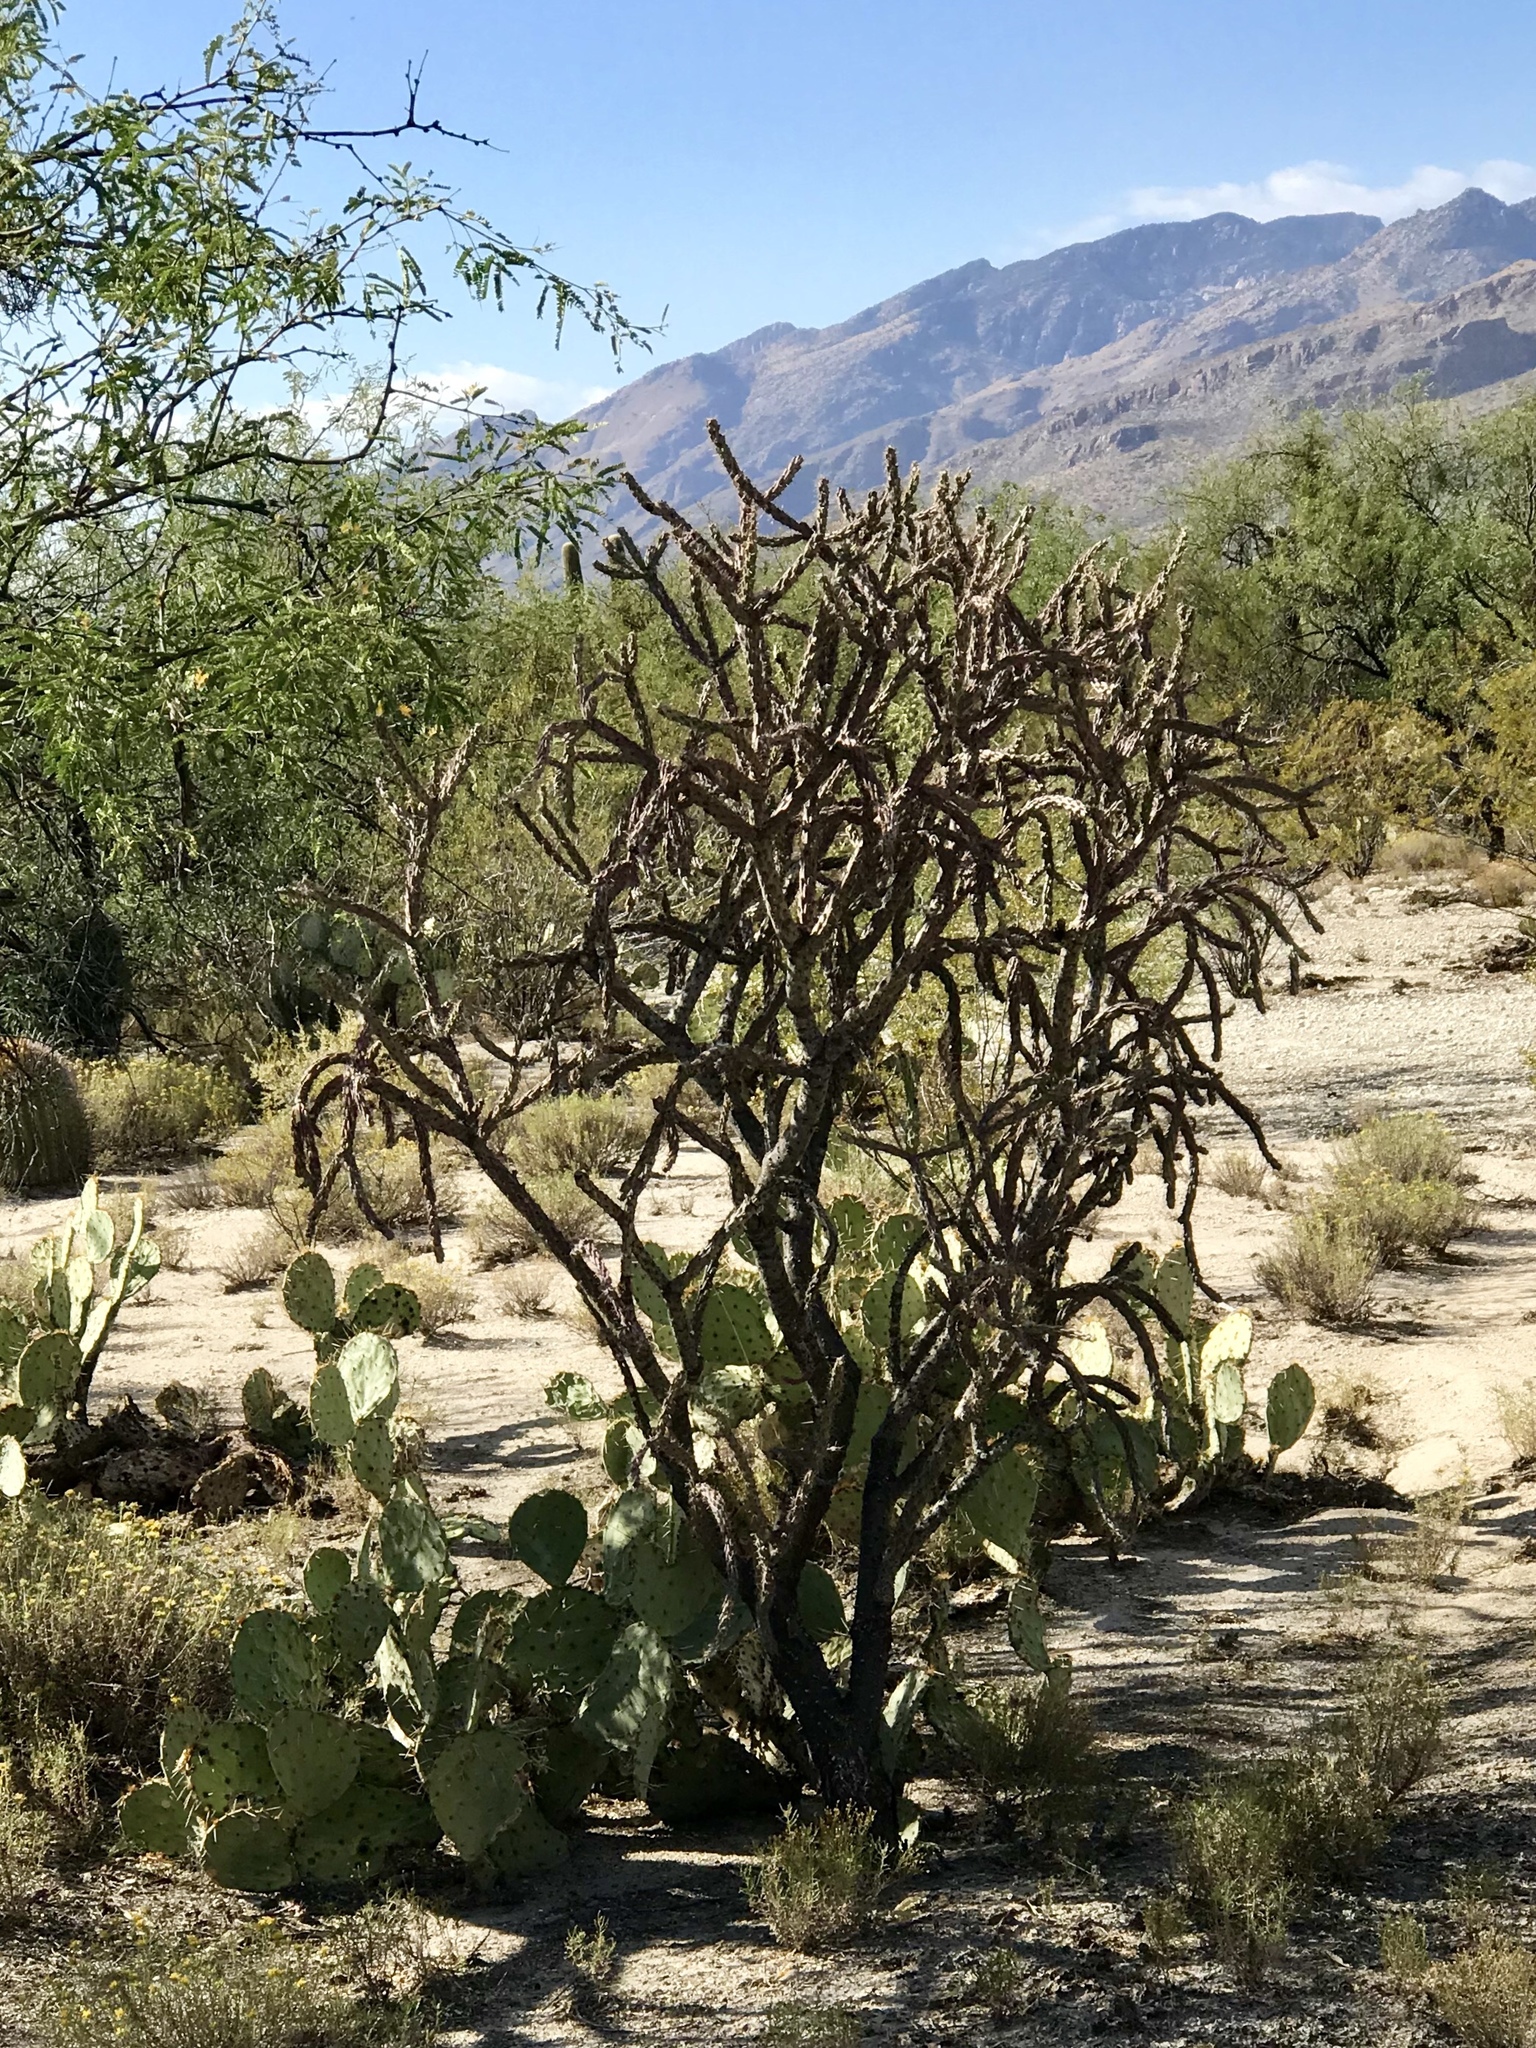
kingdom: Plantae
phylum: Tracheophyta
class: Magnoliopsida
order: Caryophyllales
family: Cactaceae
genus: Cylindropuntia
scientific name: Cylindropuntia thurberi
